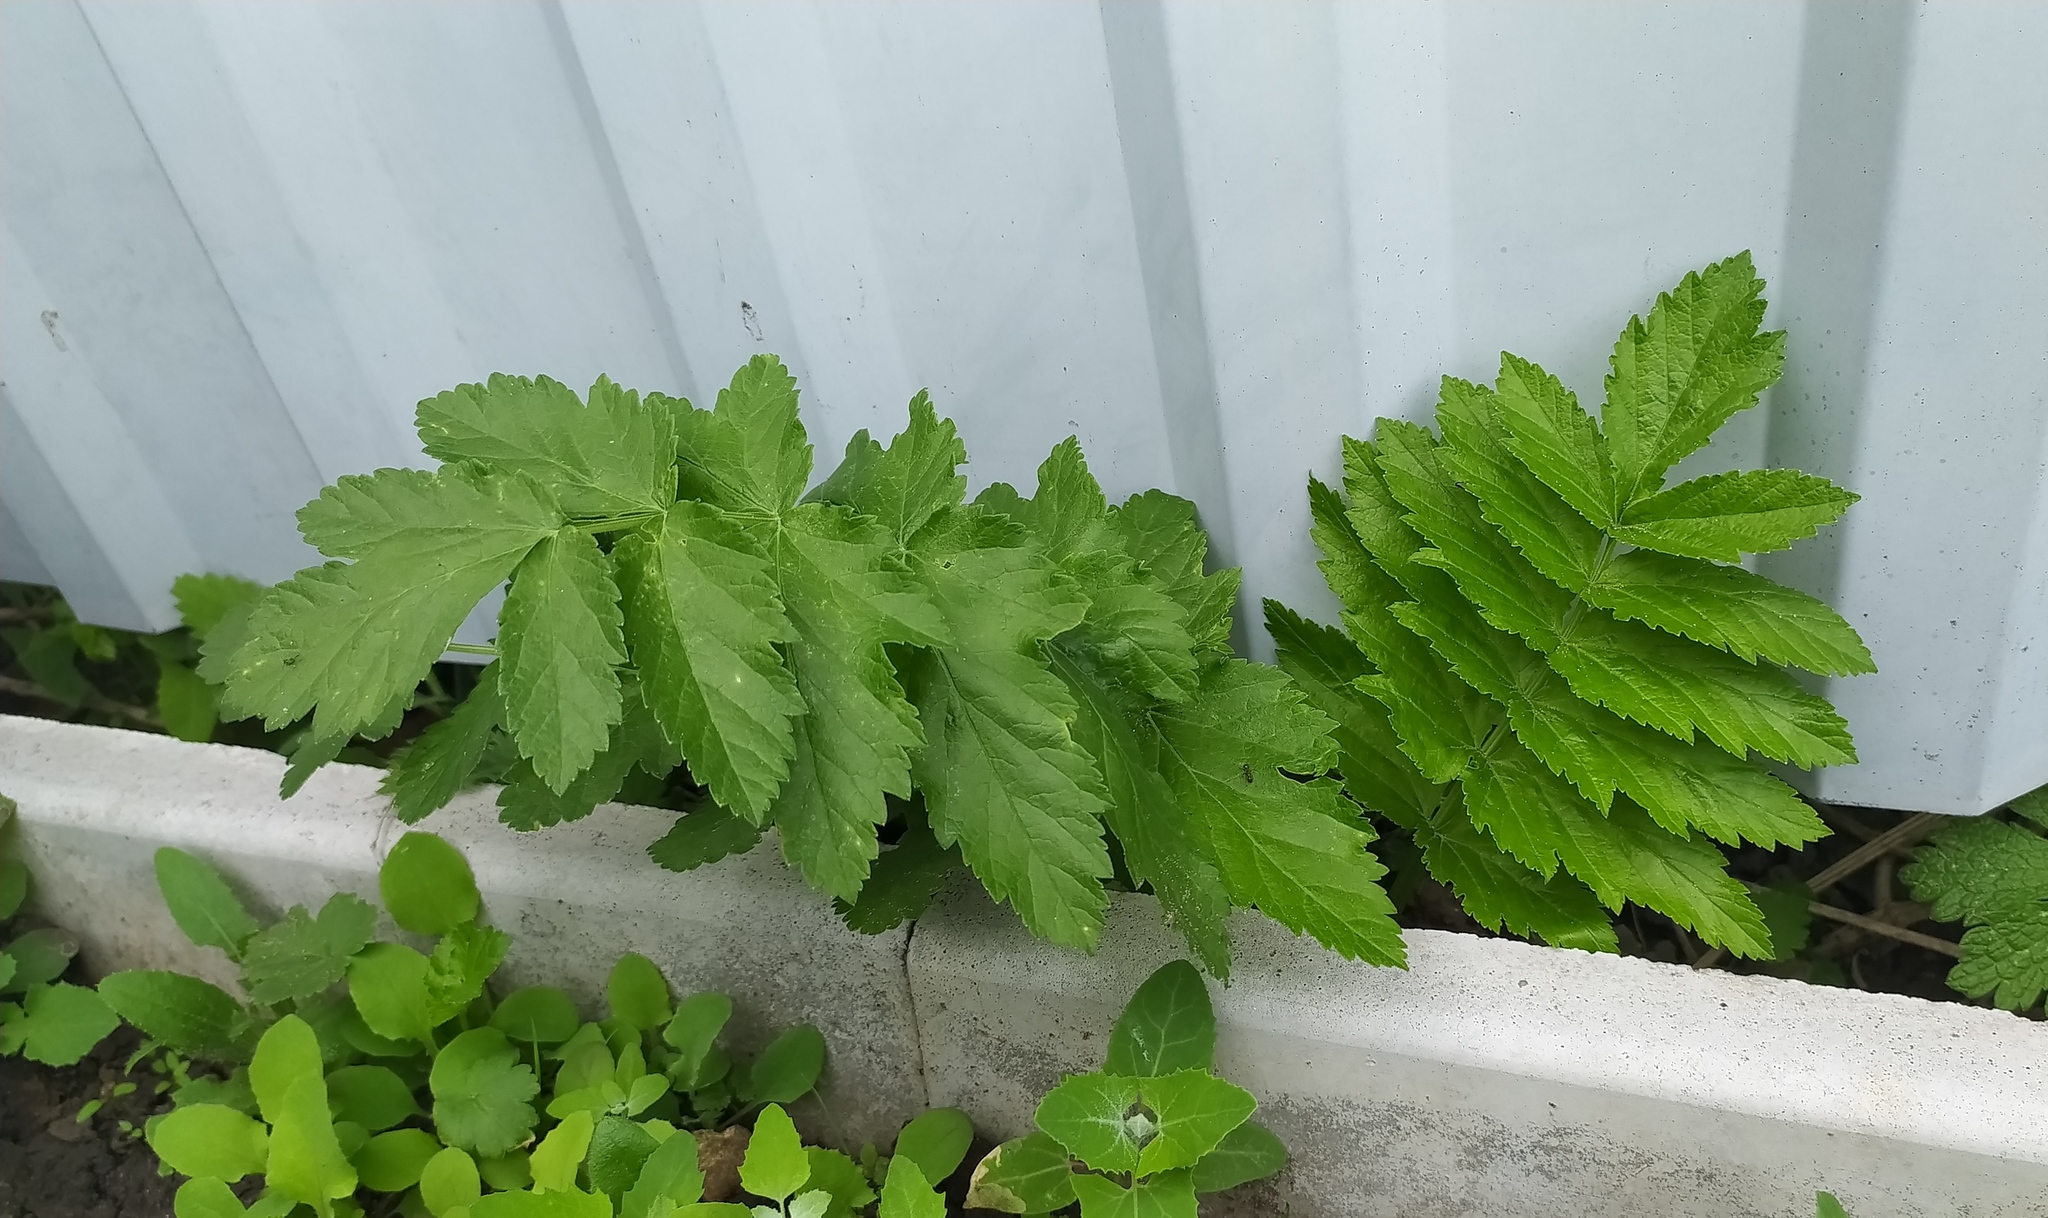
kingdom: Plantae
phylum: Tracheophyta
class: Magnoliopsida
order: Apiales
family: Apiaceae
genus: Pastinaca
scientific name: Pastinaca sativa
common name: Wild parsnip
